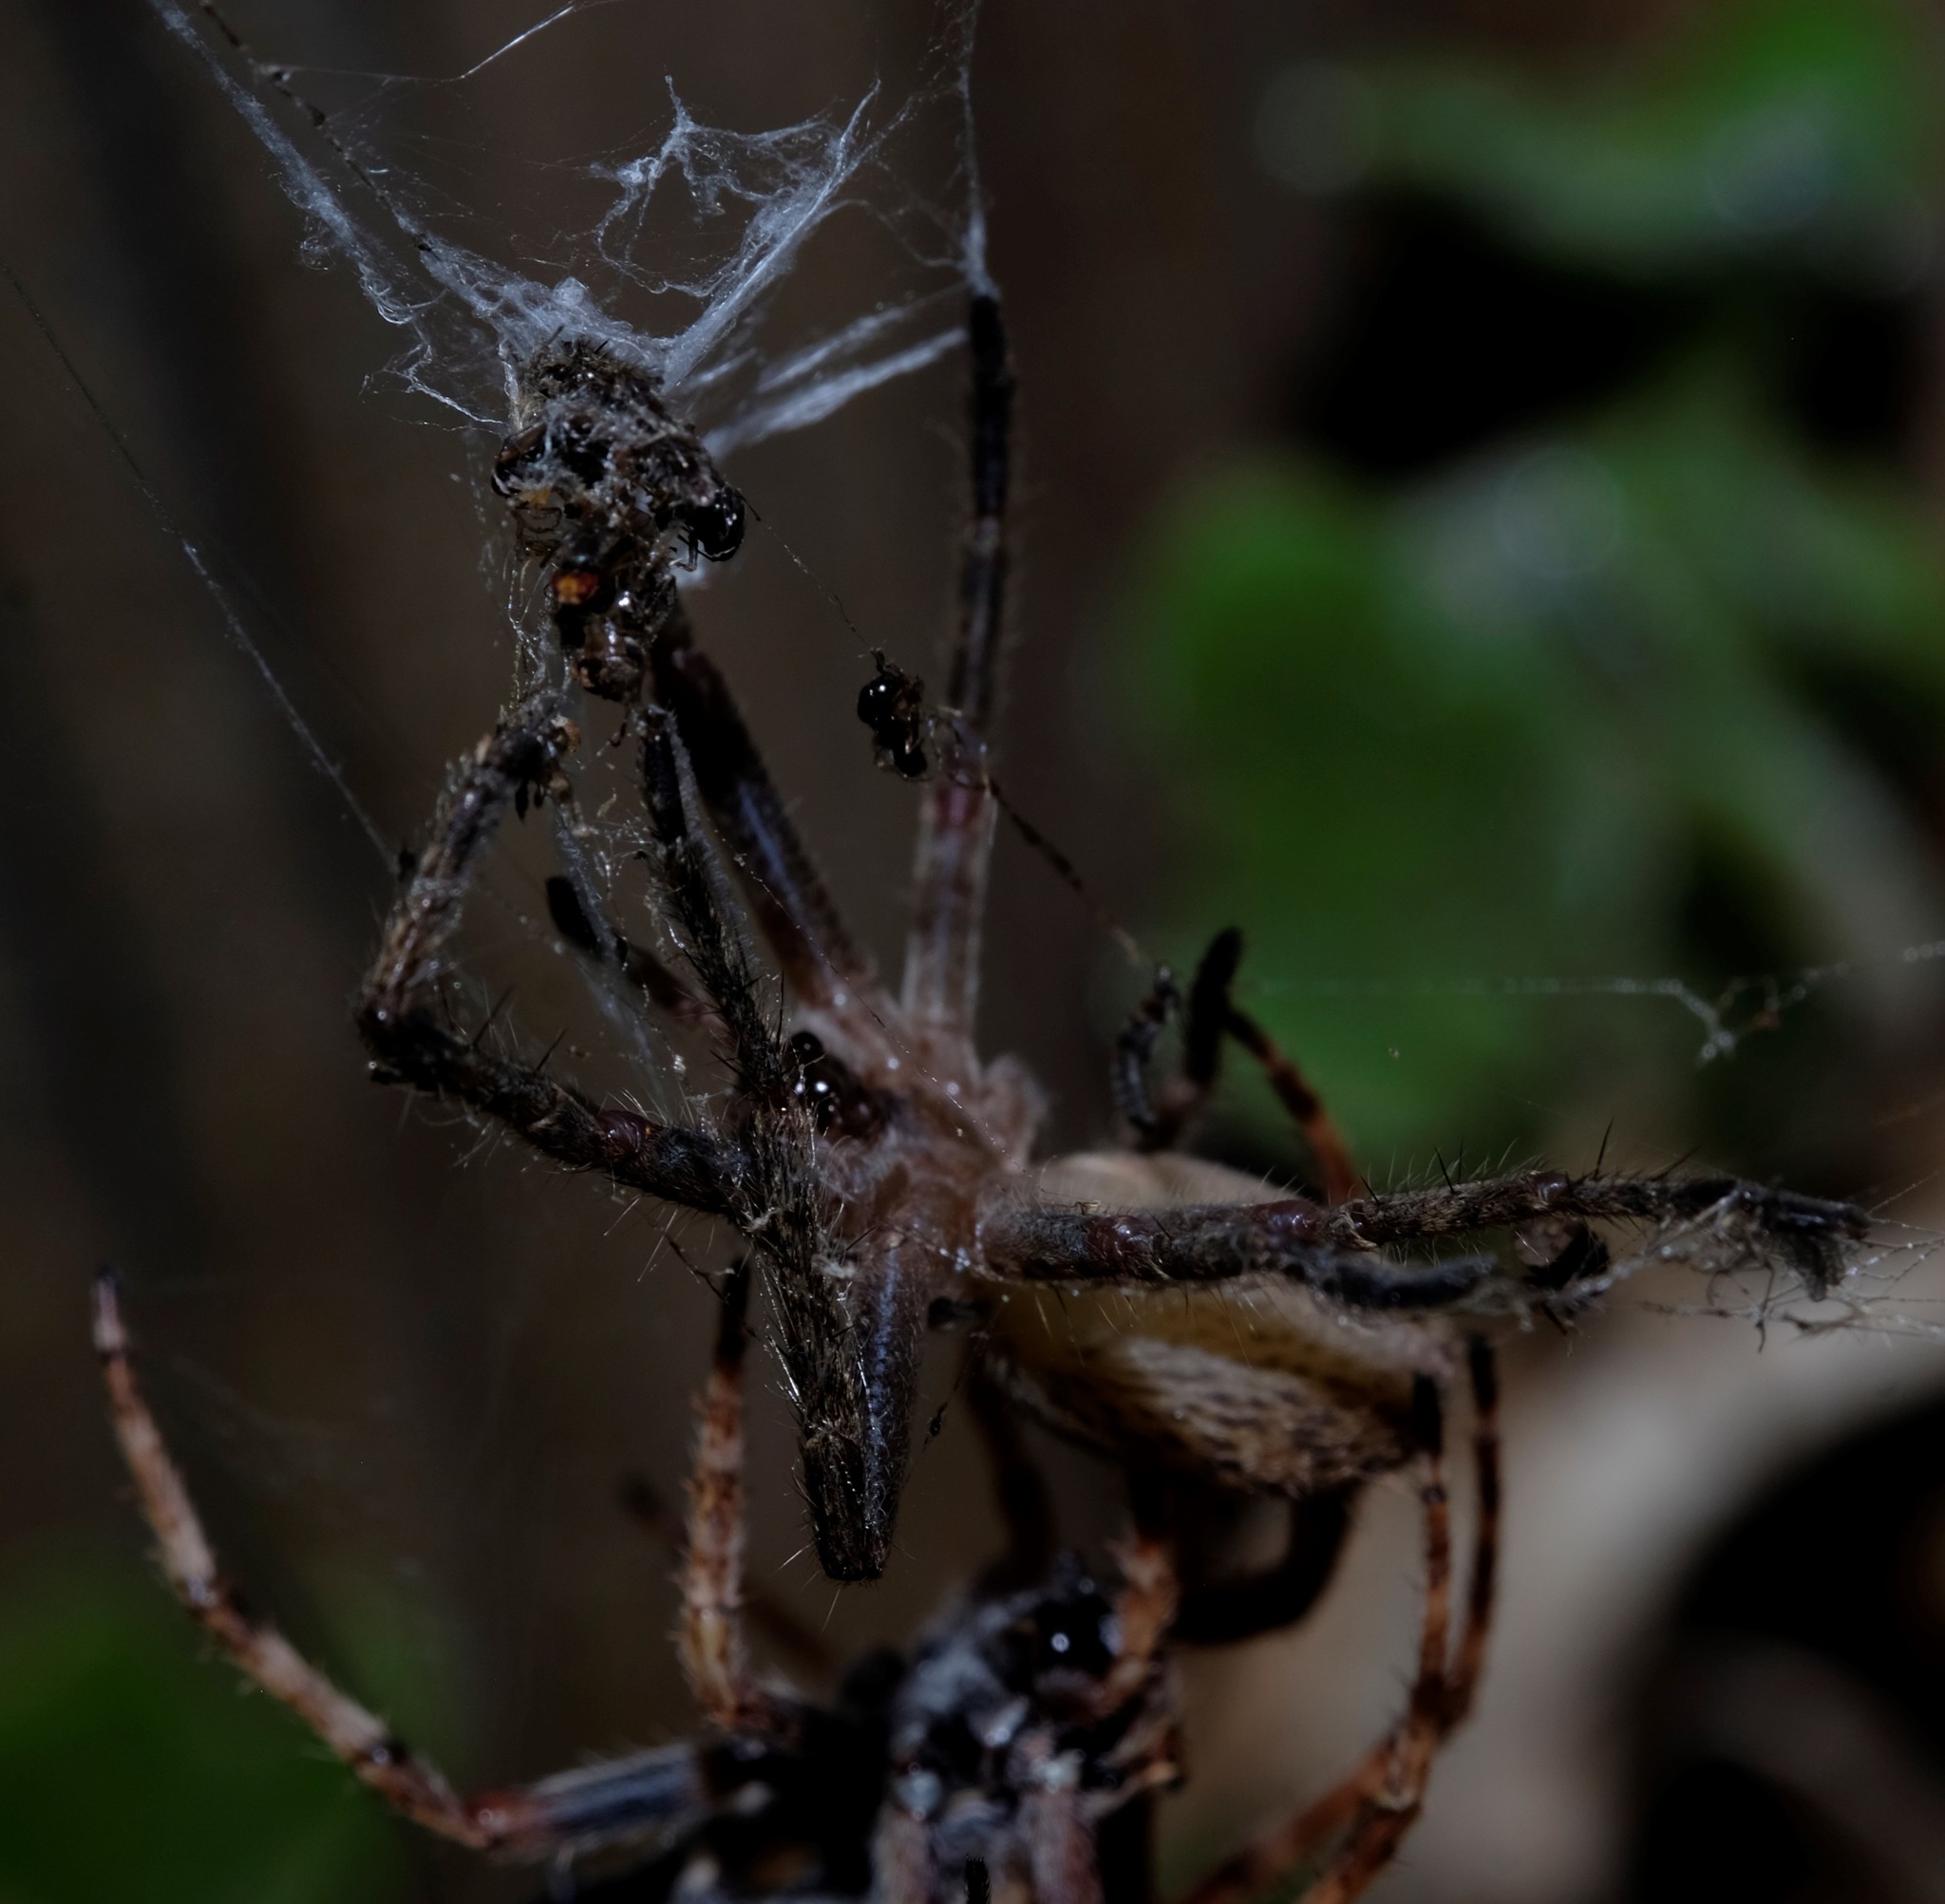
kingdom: Animalia
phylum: Arthropoda
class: Arachnida
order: Araneae
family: Araneidae
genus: Eriophora
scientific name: Eriophora pustulosa
